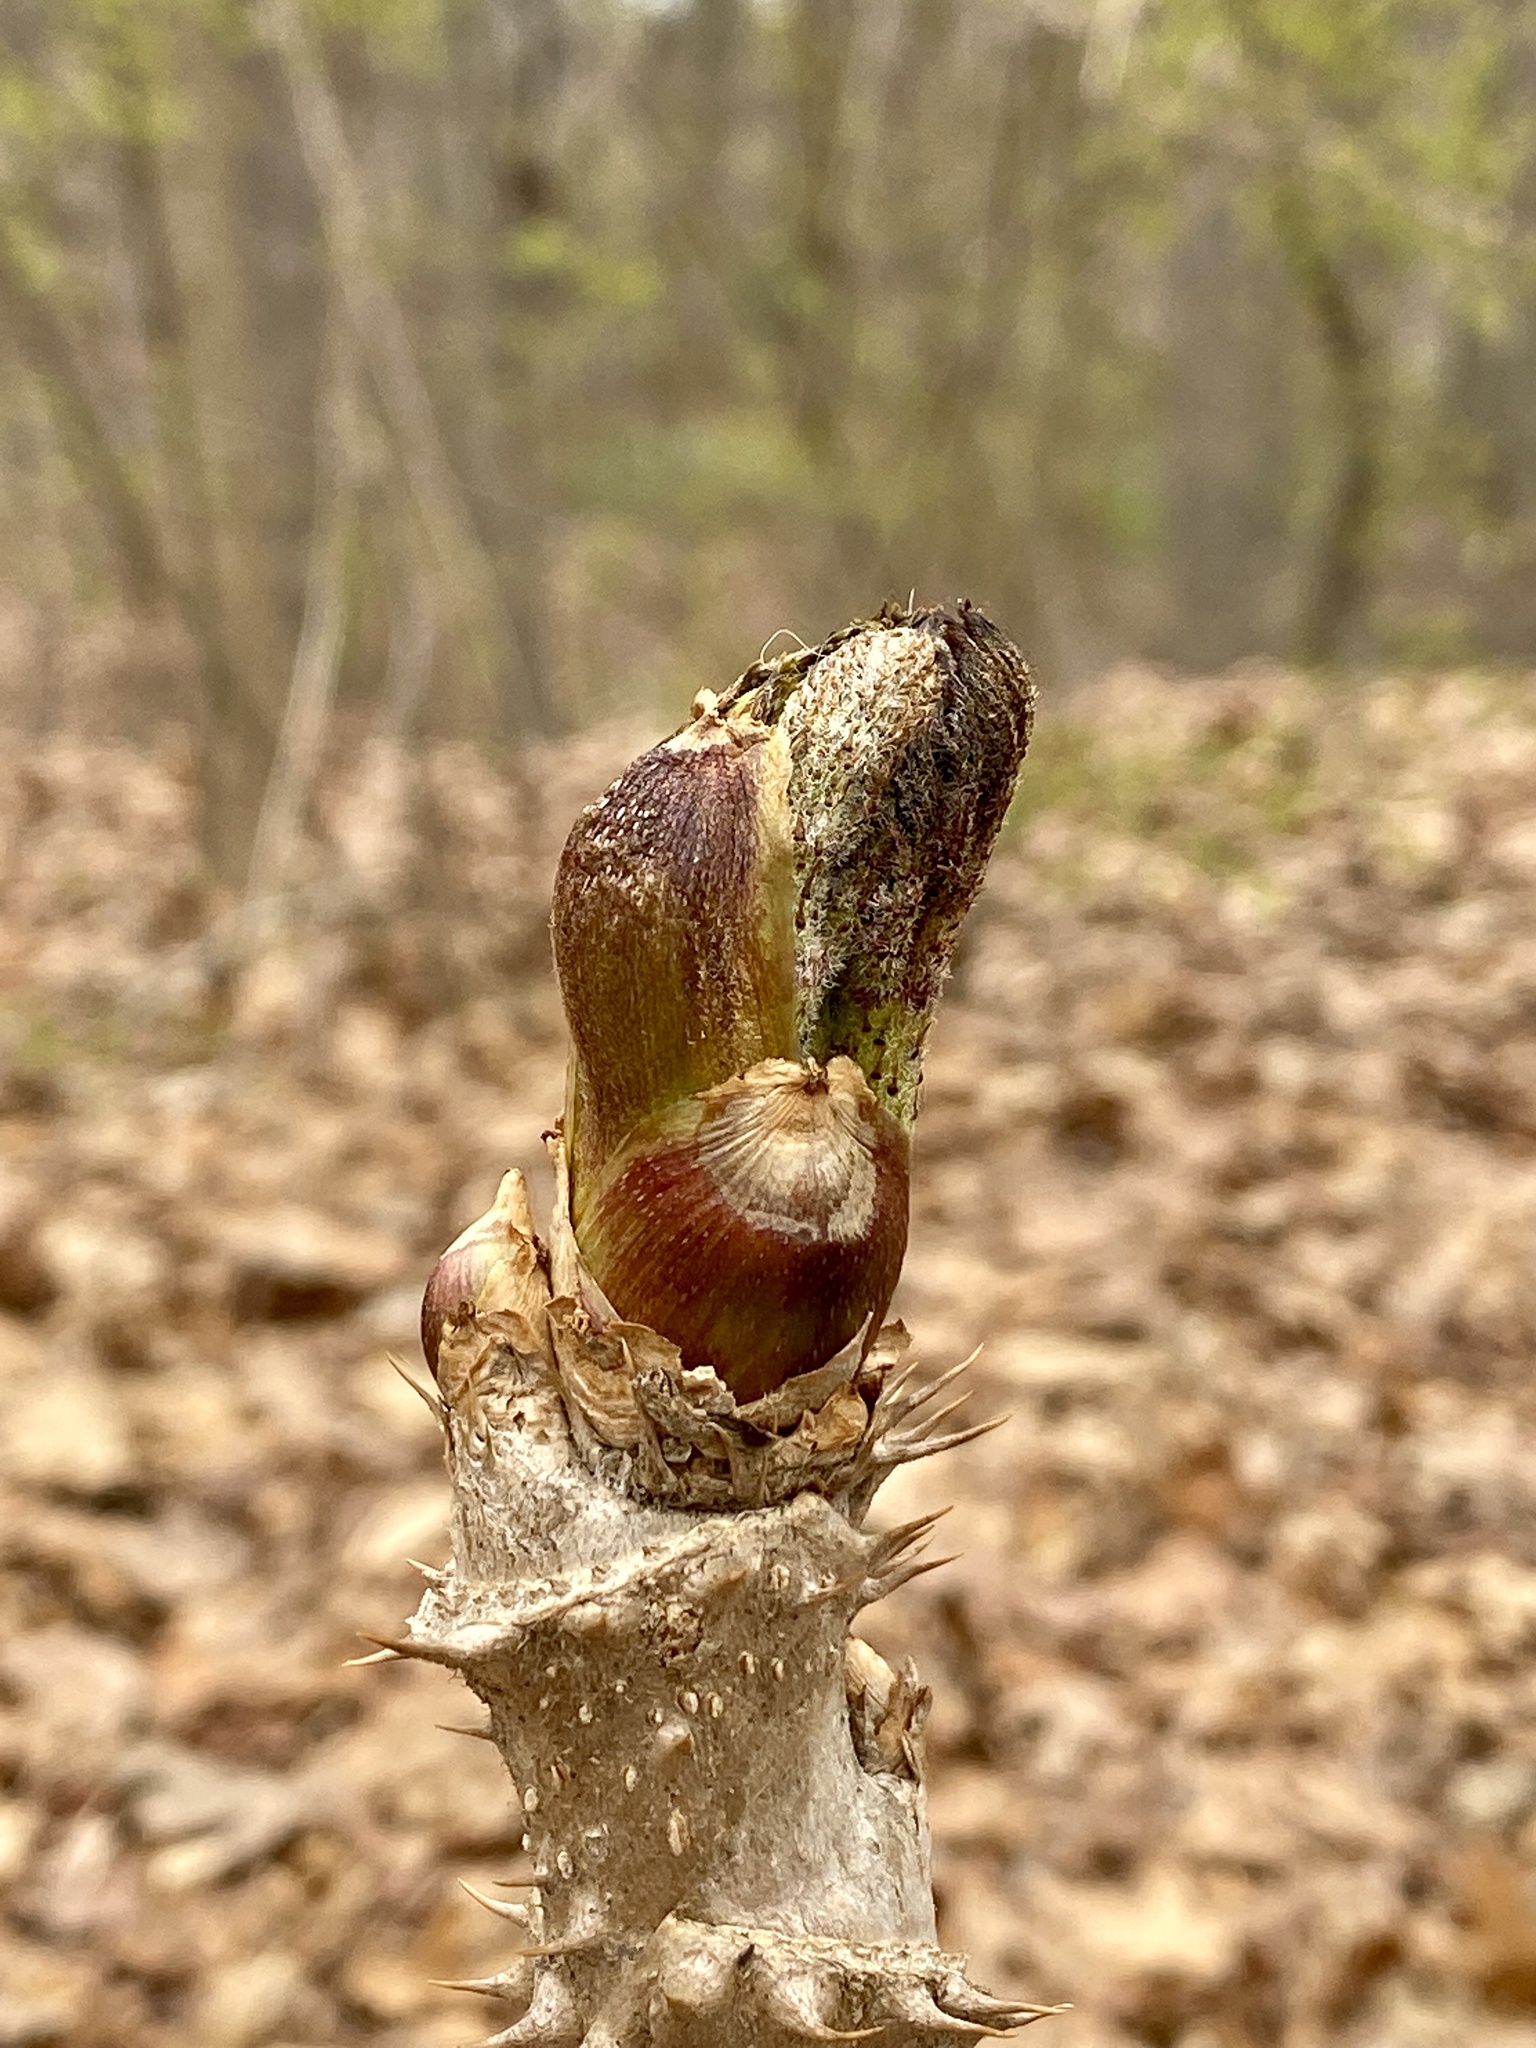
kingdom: Plantae
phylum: Tracheophyta
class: Magnoliopsida
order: Apiales
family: Araliaceae
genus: Aralia
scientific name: Aralia elata
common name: Japanese angelica-tree
